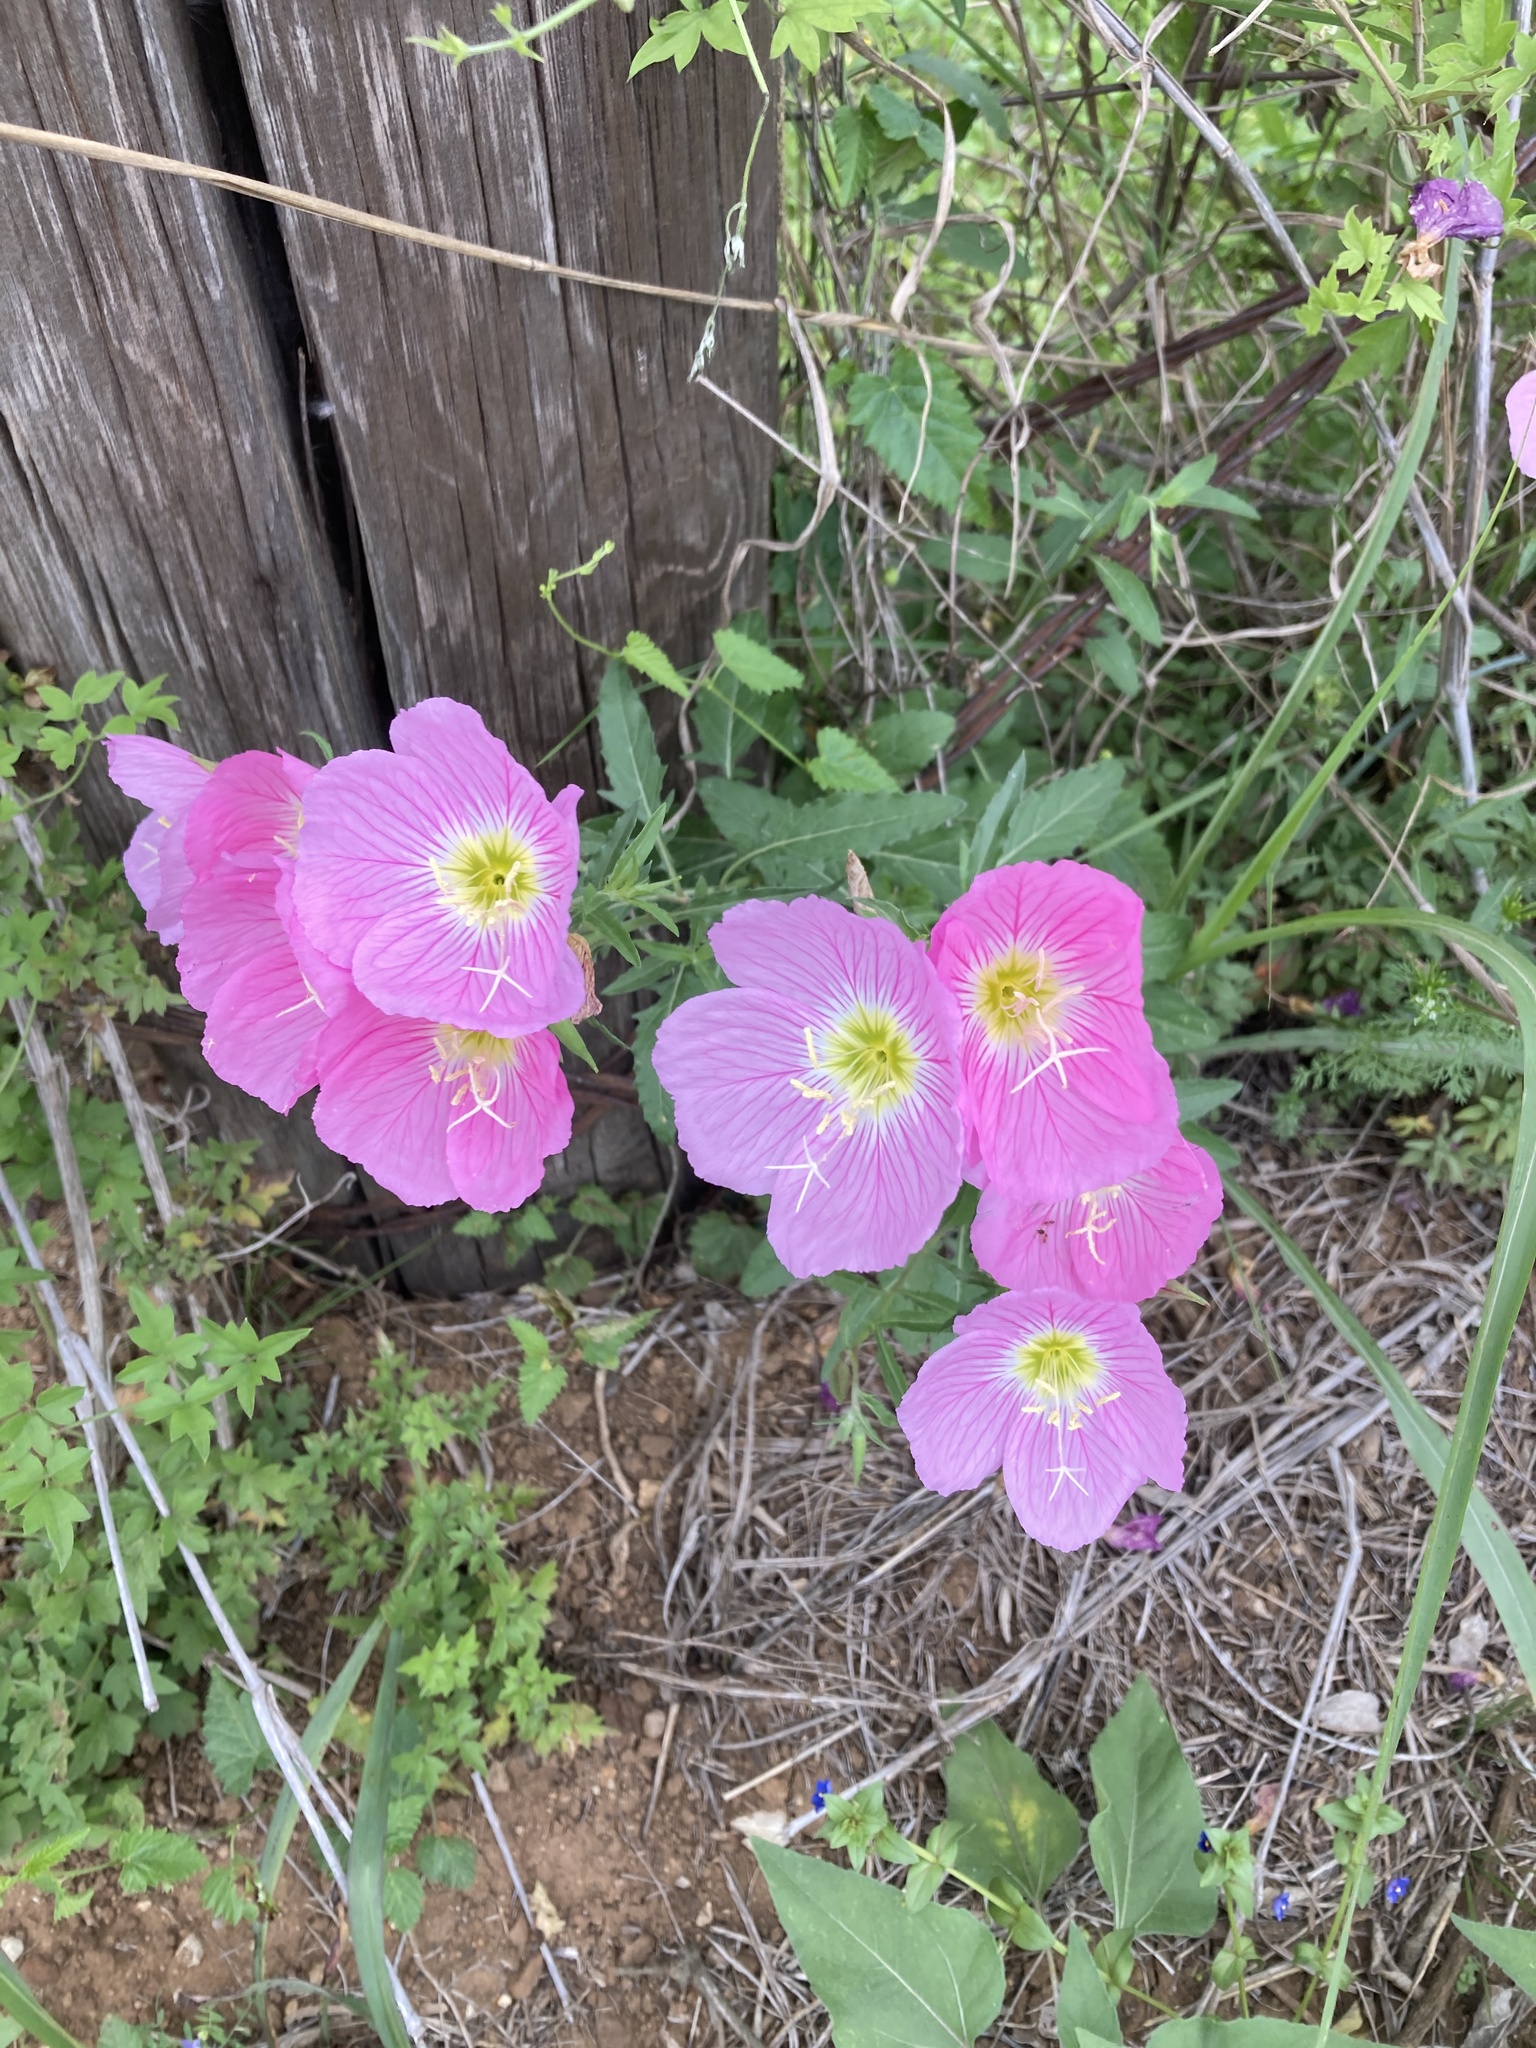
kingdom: Plantae
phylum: Tracheophyta
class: Magnoliopsida
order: Myrtales
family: Onagraceae
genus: Oenothera
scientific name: Oenothera speciosa
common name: White evening-primrose
